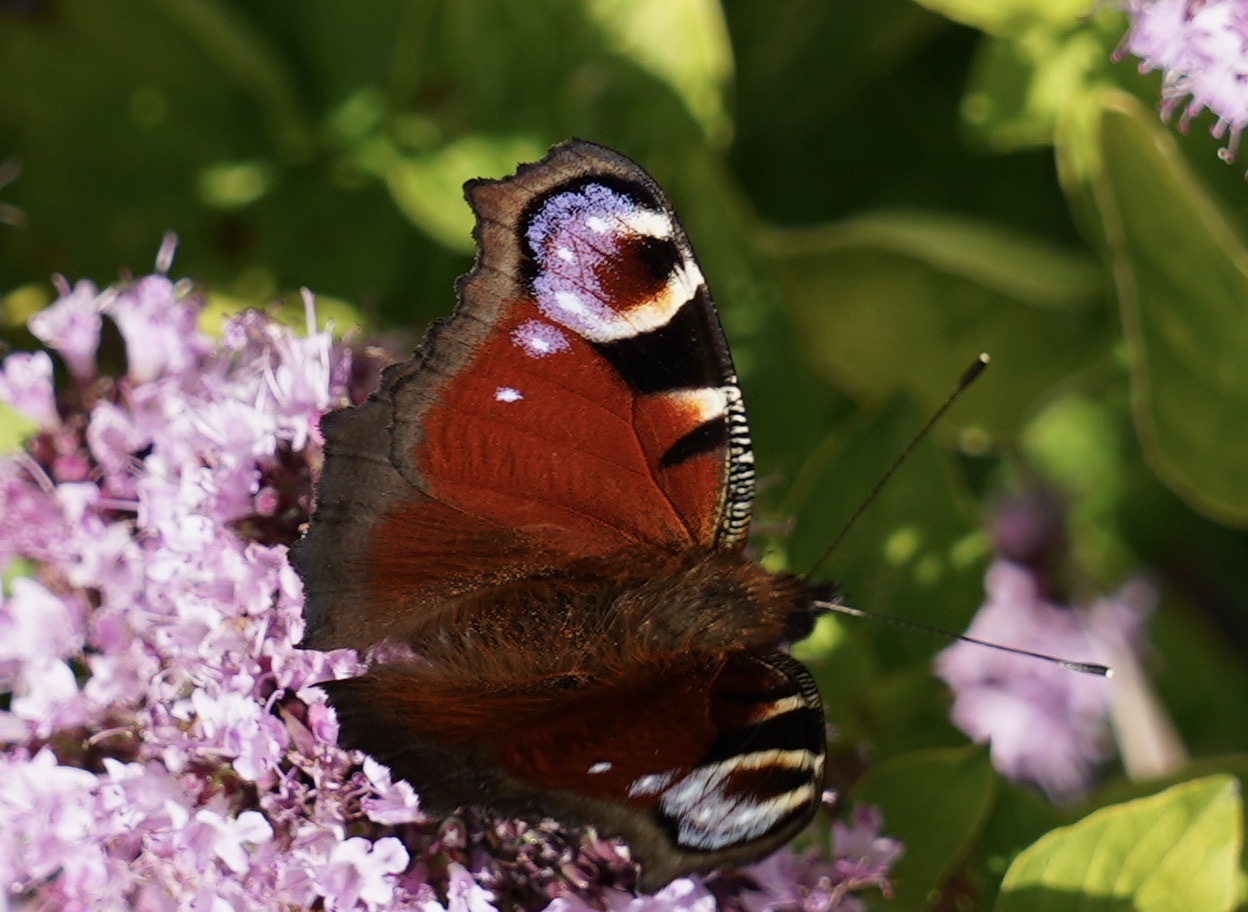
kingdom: Animalia
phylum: Arthropoda
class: Insecta
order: Lepidoptera
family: Nymphalidae
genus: Aglais
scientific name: Aglais io
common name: Peacock
